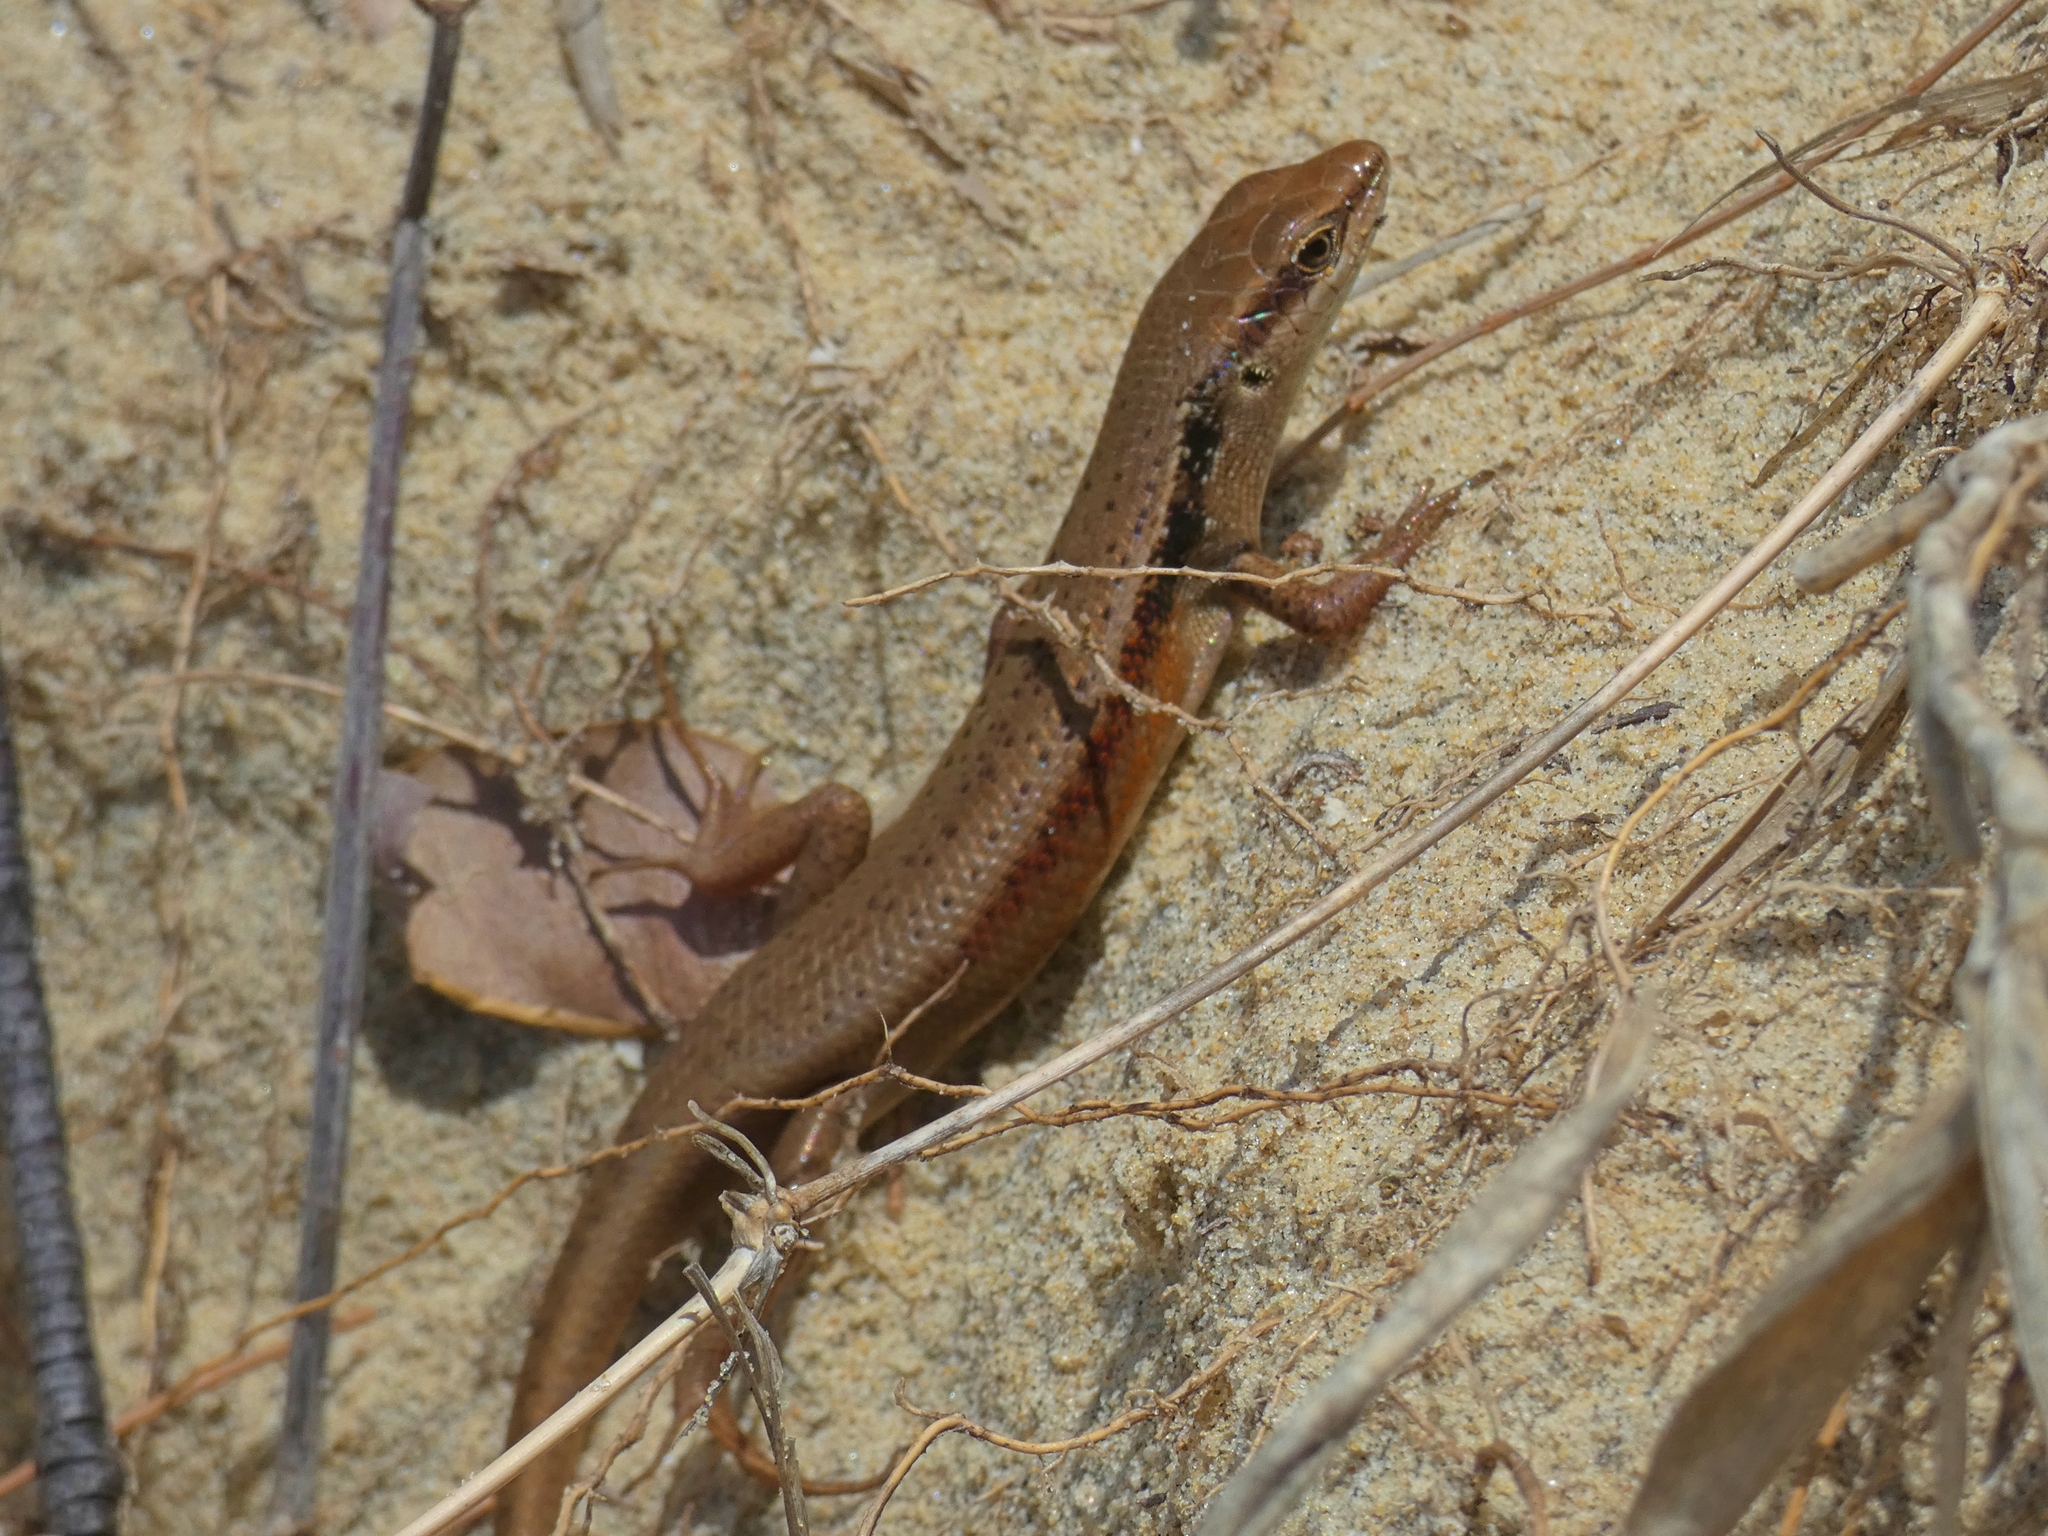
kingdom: Animalia
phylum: Chordata
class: Squamata
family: Scincidae
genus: Carlia
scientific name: Carlia longipes
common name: Closed-litter rainbow-skink
